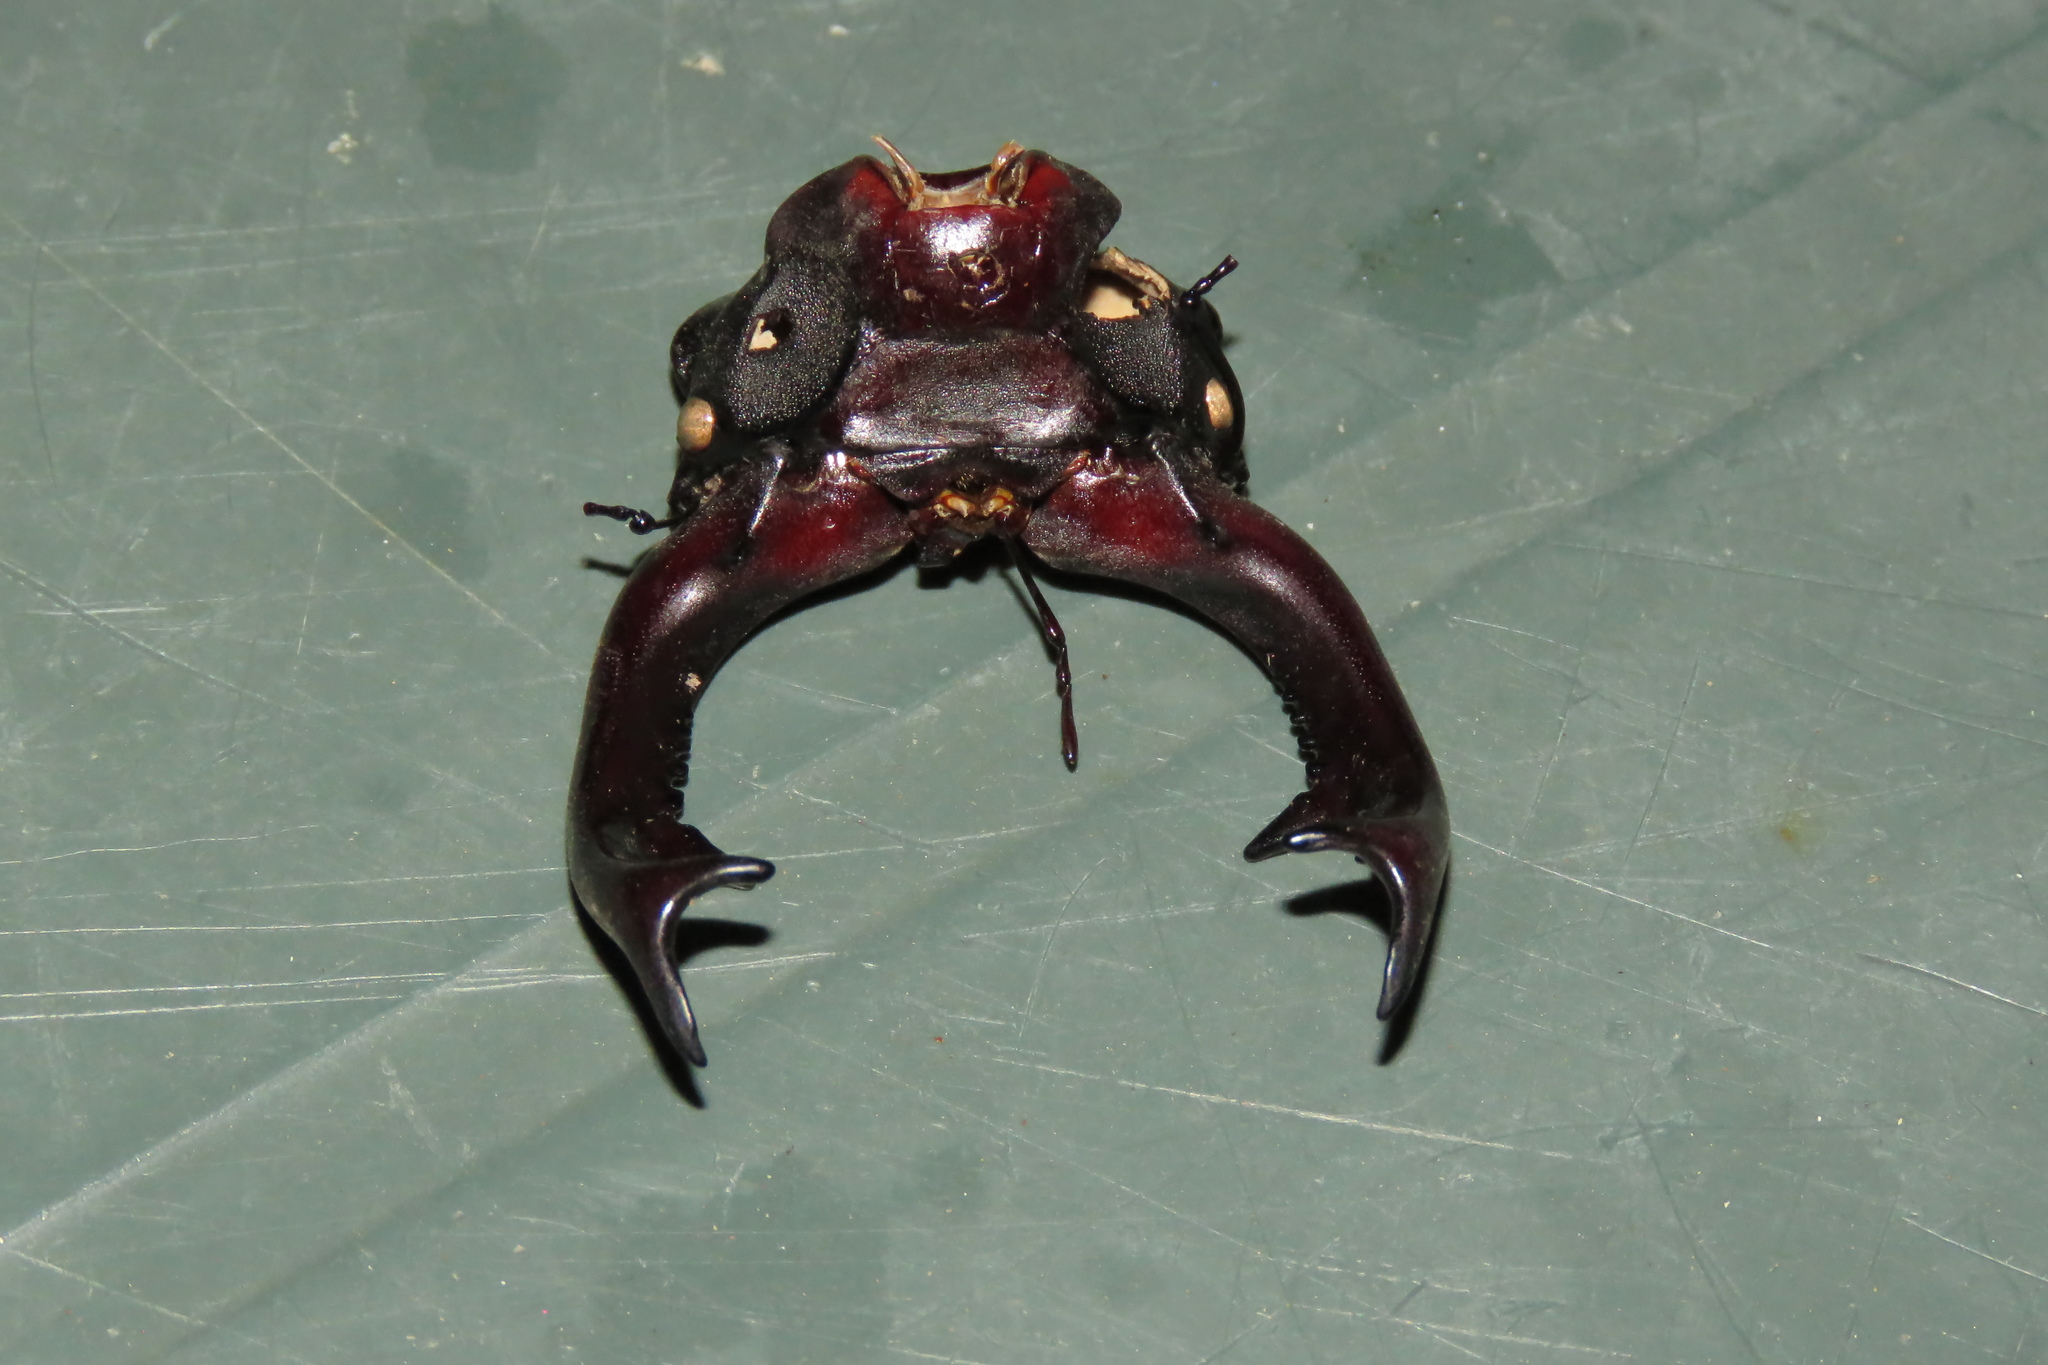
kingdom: Animalia
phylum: Arthropoda
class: Insecta
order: Coleoptera
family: Lucanidae
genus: Lucanus
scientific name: Lucanus cervus
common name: Stag beetle
